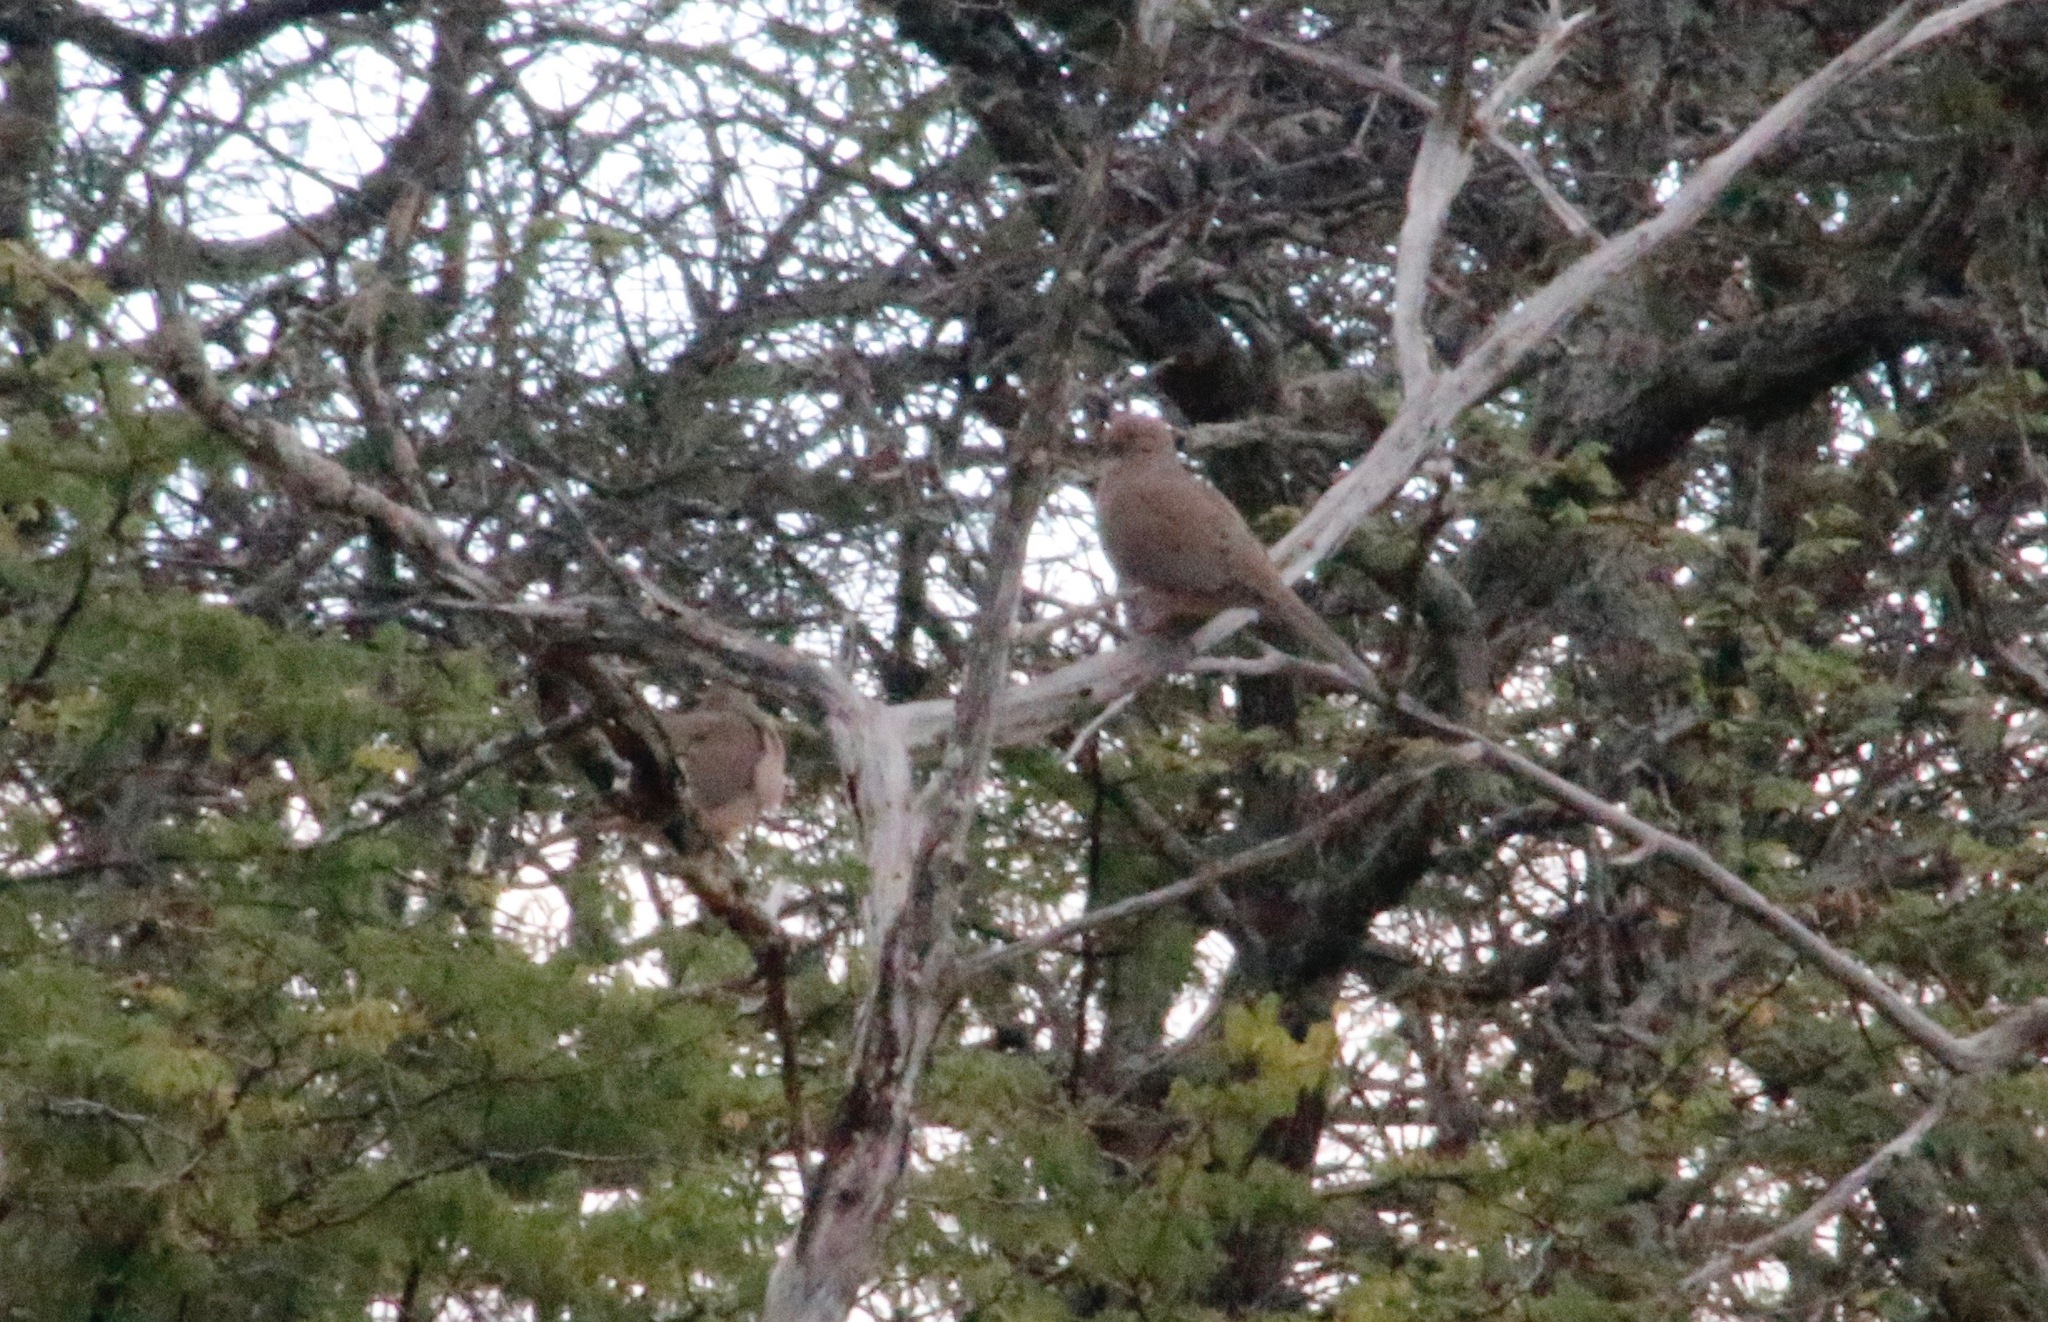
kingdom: Animalia
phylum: Chordata
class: Aves
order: Columbiformes
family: Columbidae
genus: Zenaida
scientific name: Zenaida macroura
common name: Mourning dove
